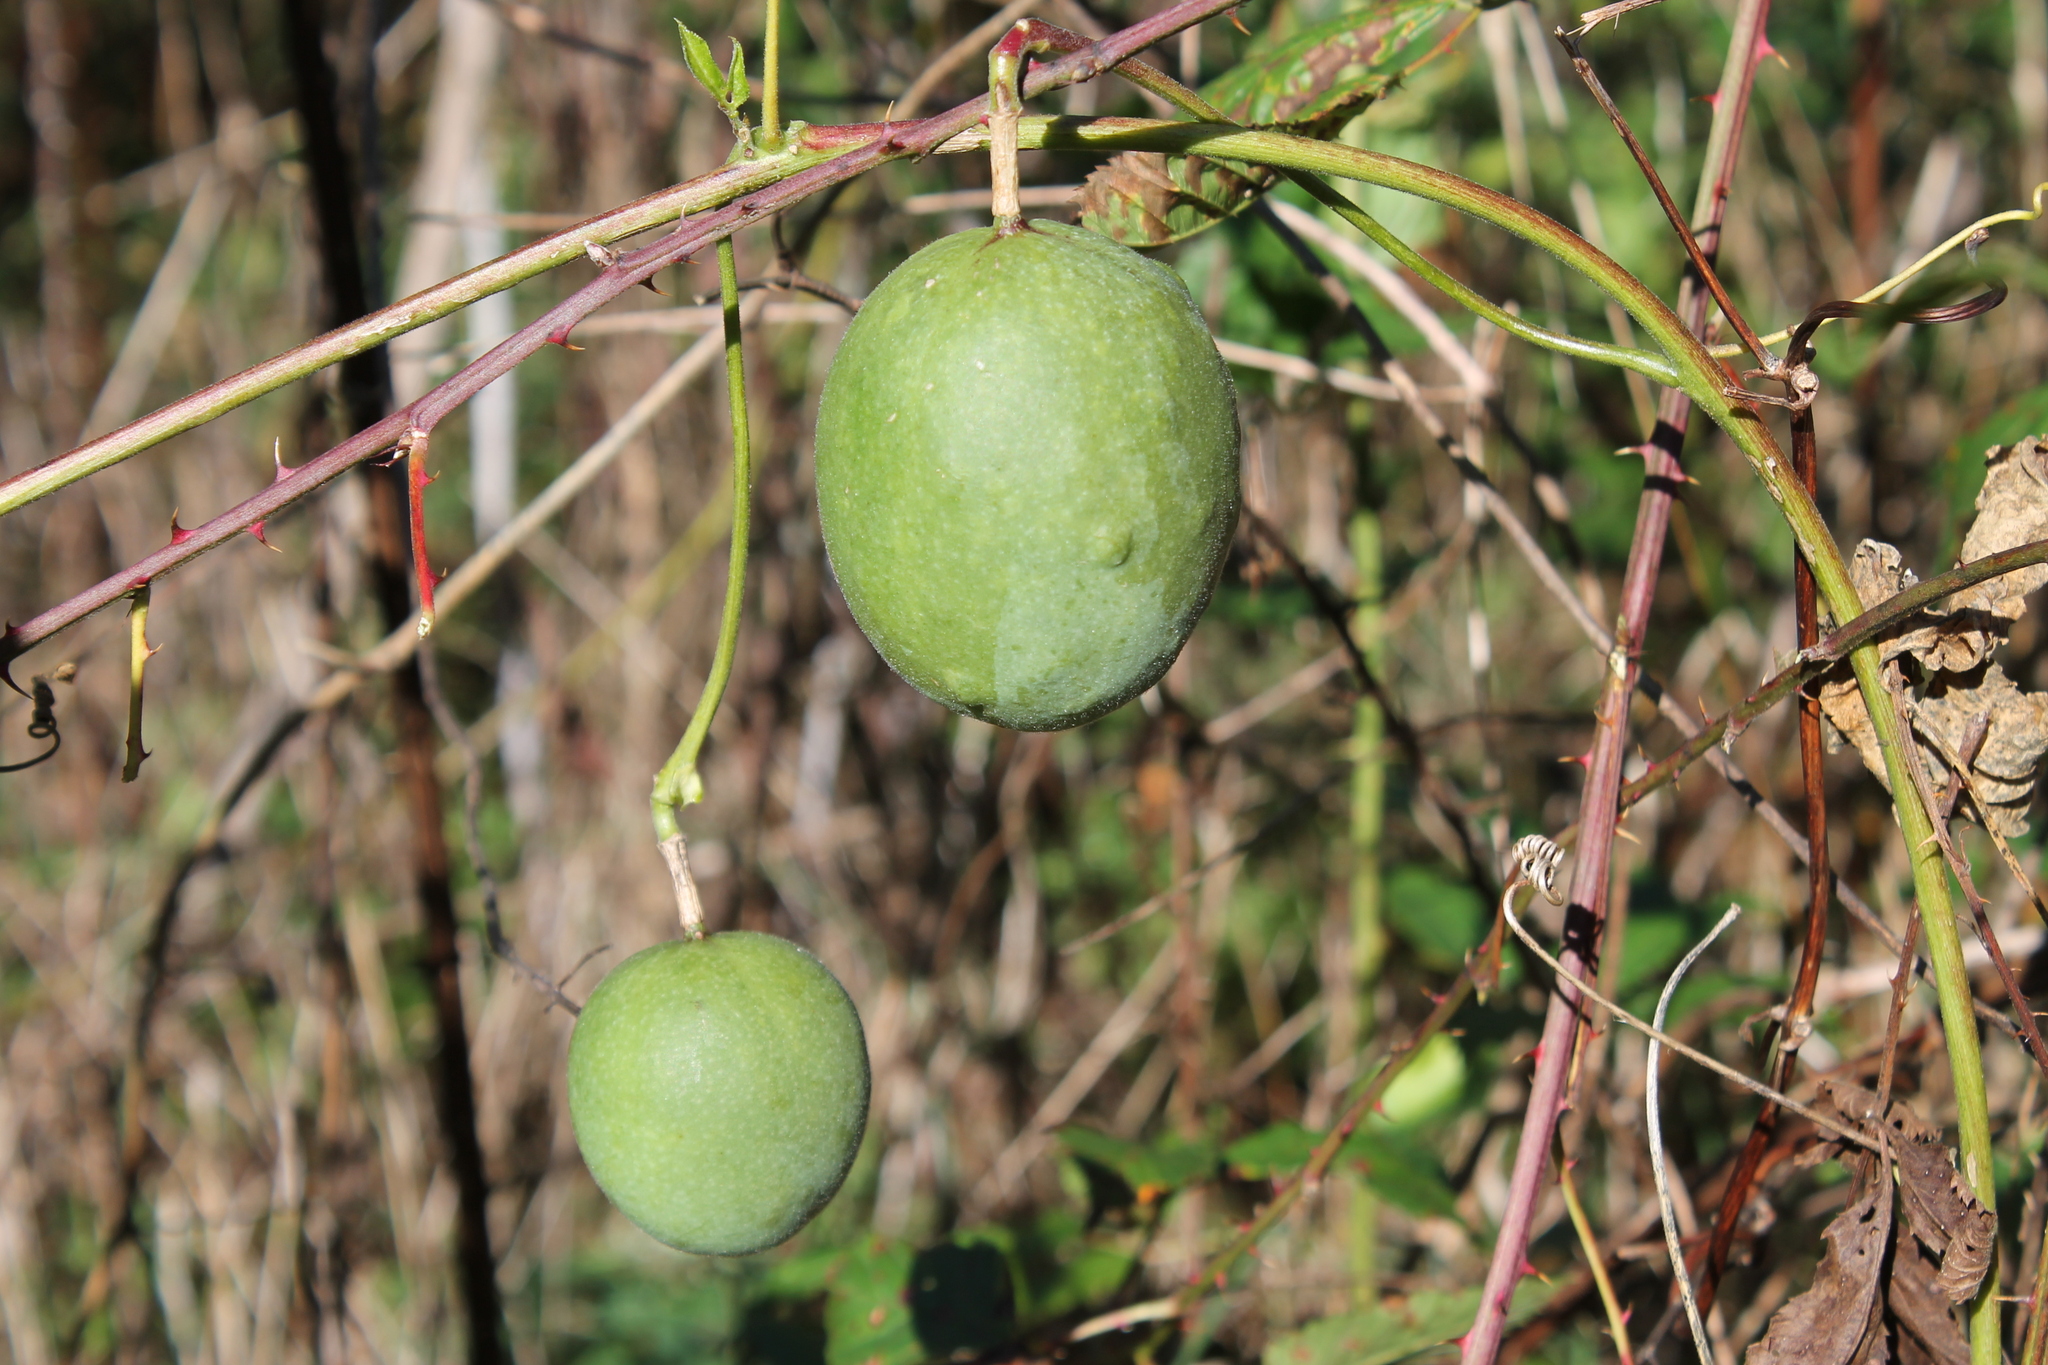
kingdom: Plantae
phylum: Tracheophyta
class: Magnoliopsida
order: Malpighiales
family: Passifloraceae
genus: Passiflora
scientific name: Passiflora incarnata
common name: Apricot-vine
